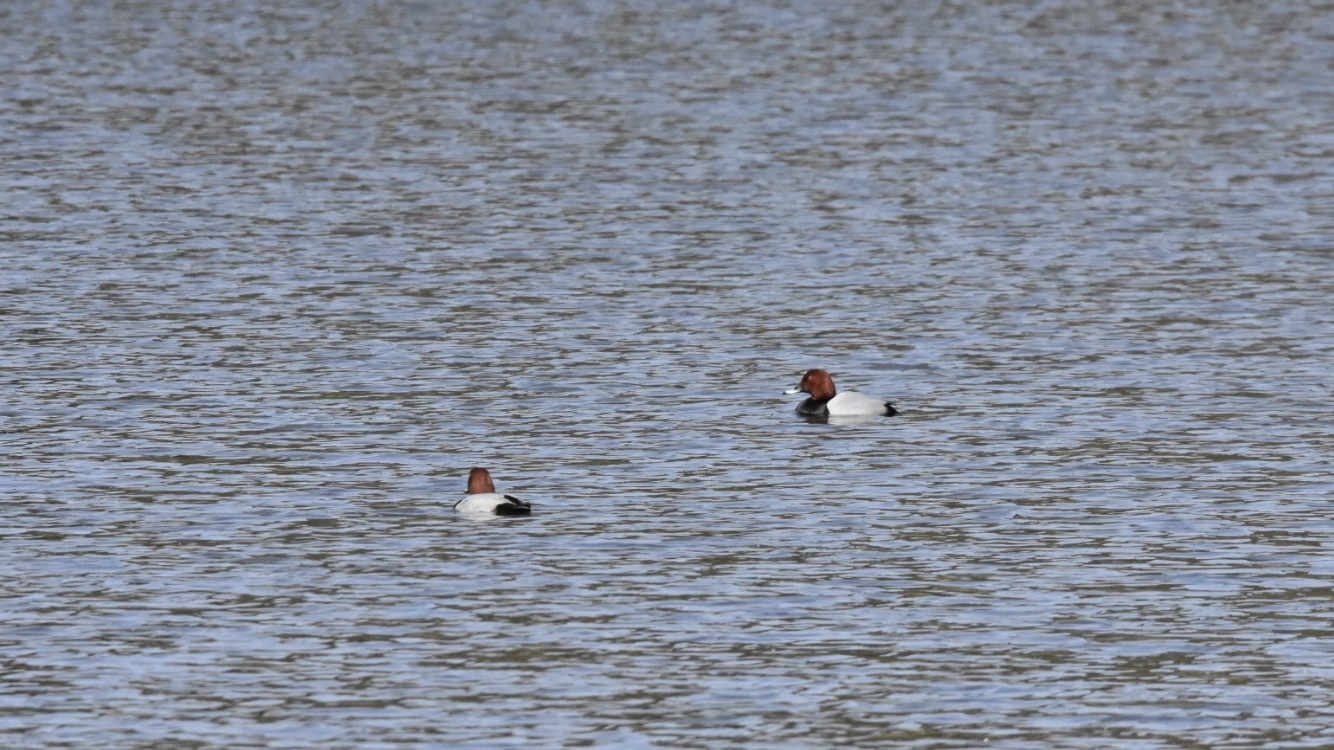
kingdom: Animalia
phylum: Chordata
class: Aves
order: Anseriformes
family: Anatidae
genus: Aythya
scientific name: Aythya ferina
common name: Common pochard
